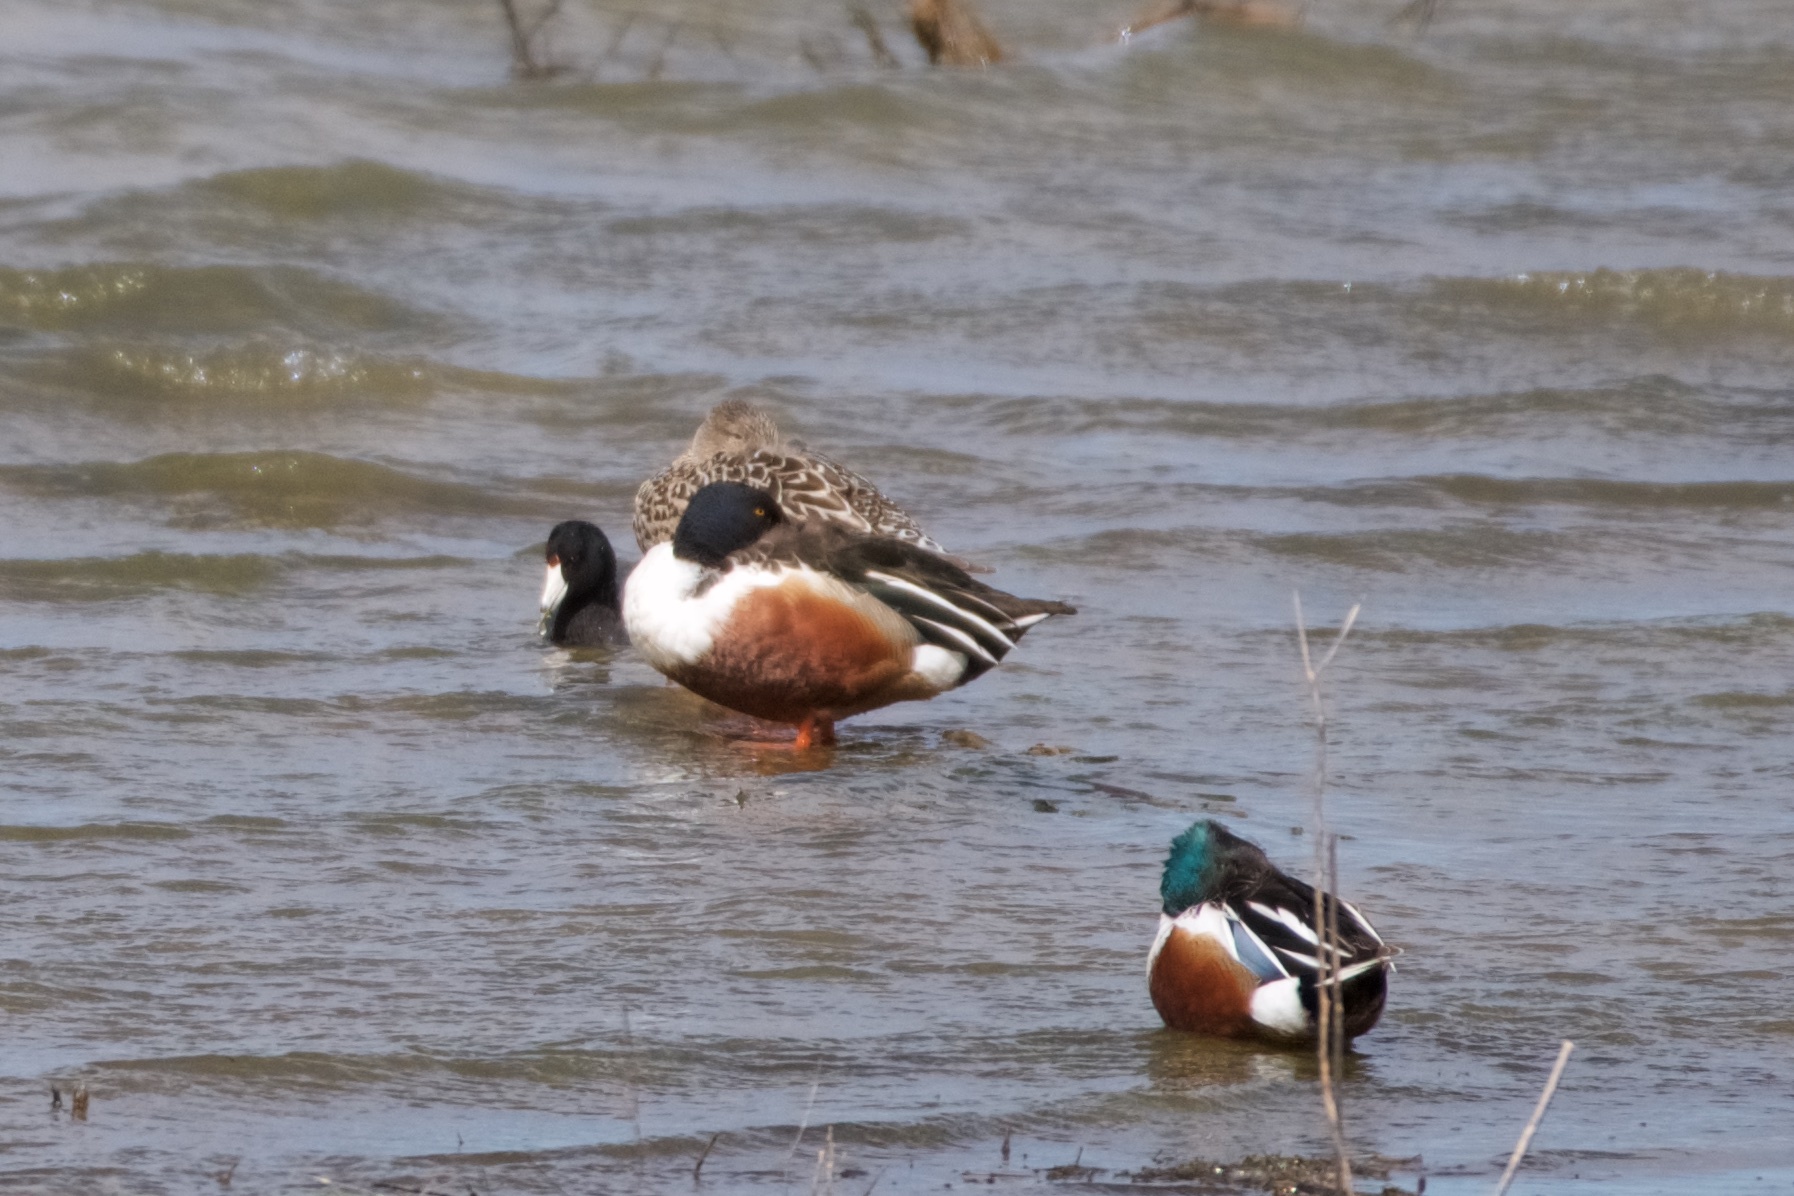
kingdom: Animalia
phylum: Chordata
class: Aves
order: Anseriformes
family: Anatidae
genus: Spatula
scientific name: Spatula clypeata
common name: Northern shoveler
